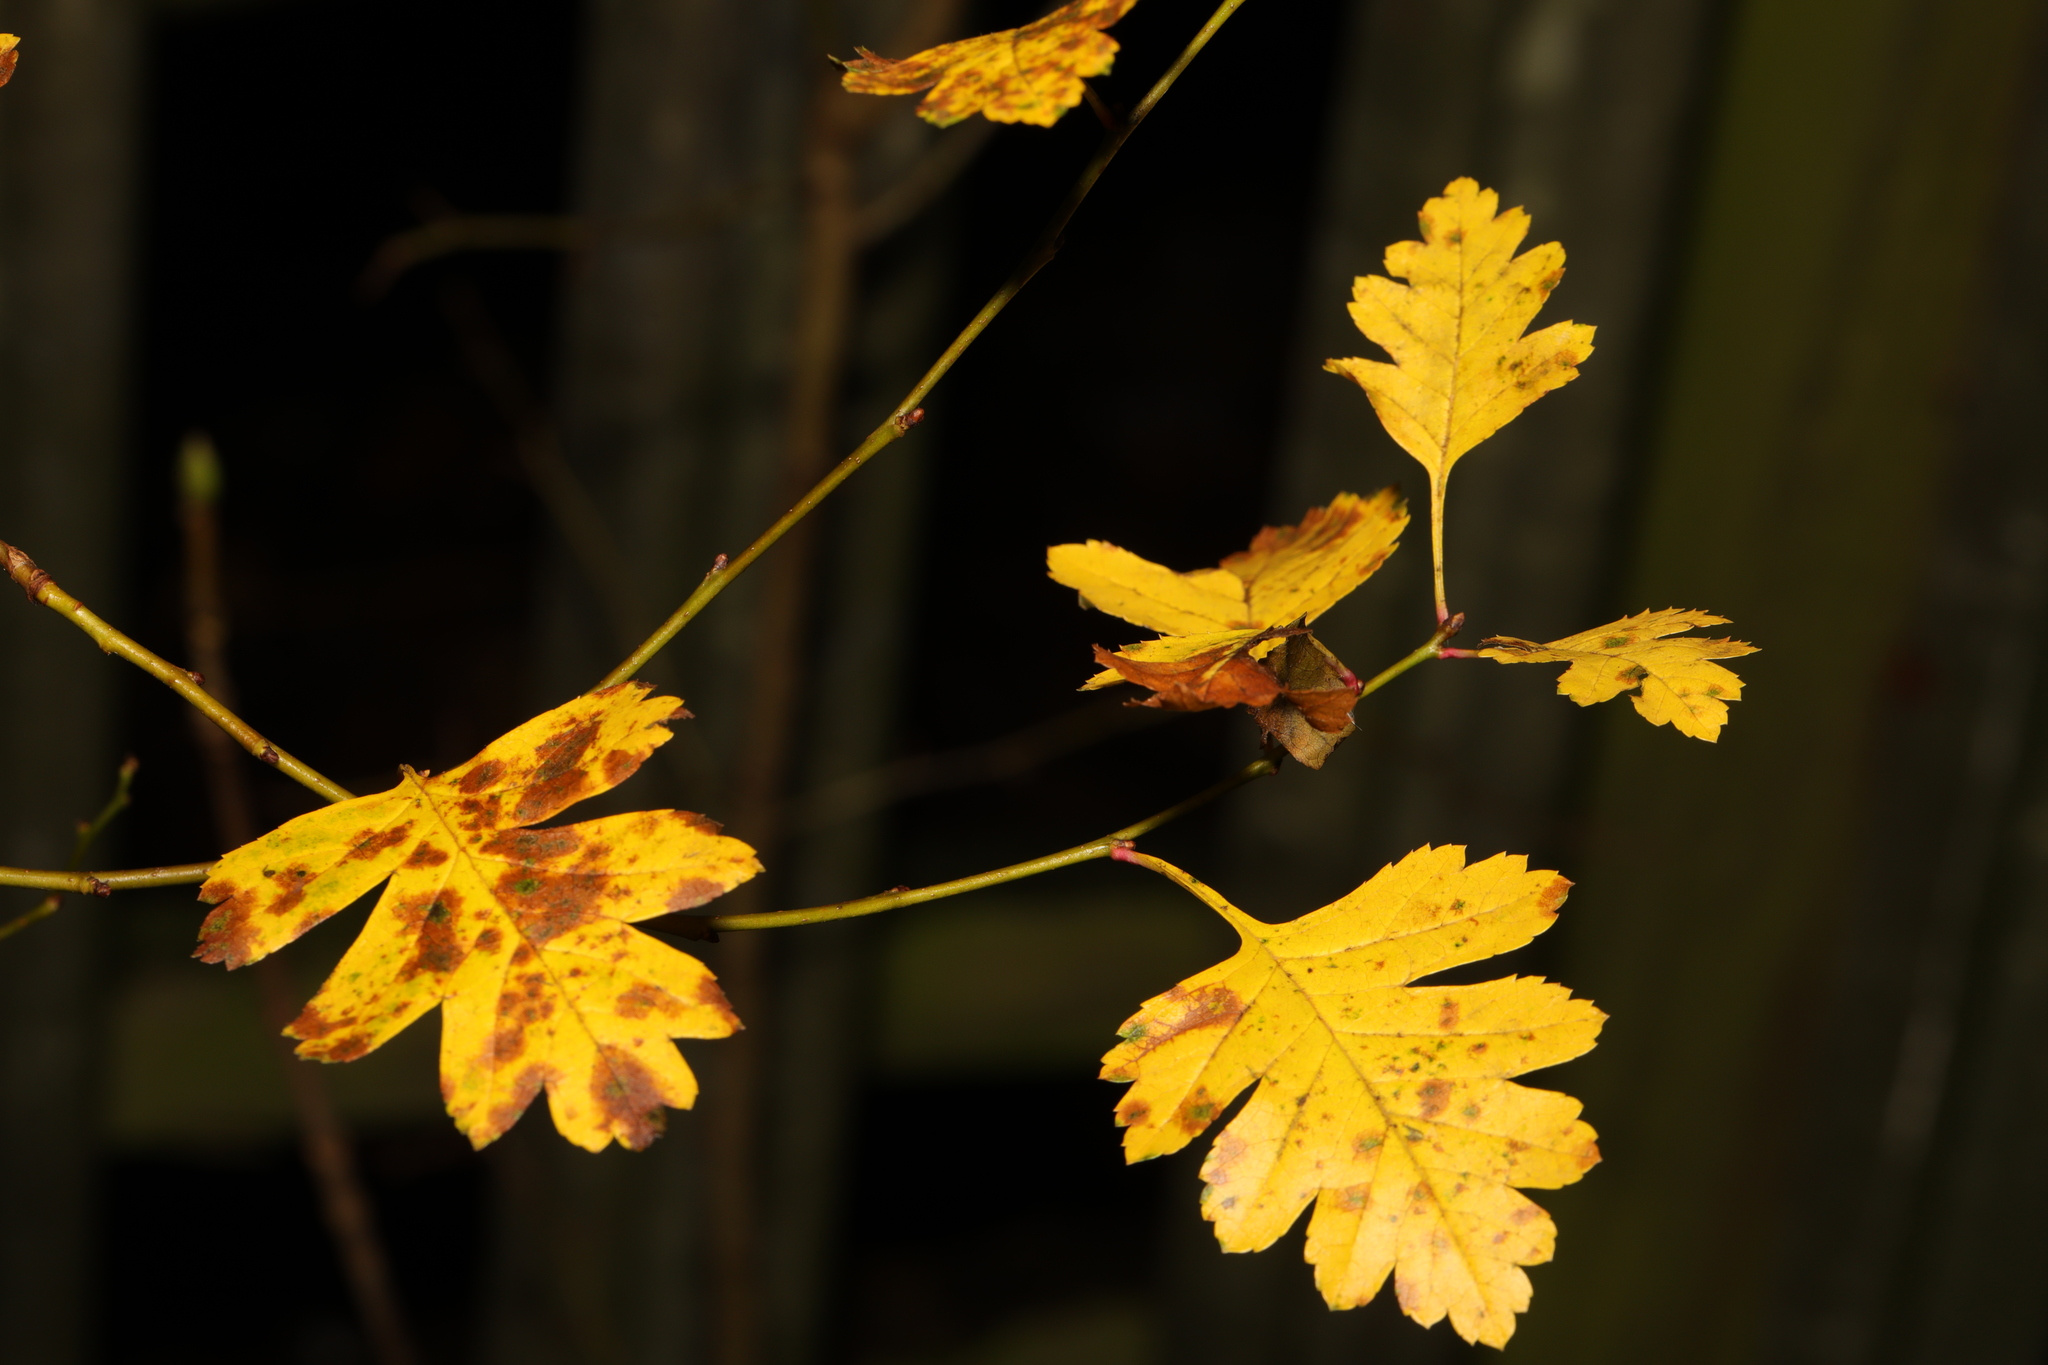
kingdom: Plantae
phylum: Tracheophyta
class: Magnoliopsida
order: Rosales
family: Rosaceae
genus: Crataegus
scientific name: Crataegus monogyna
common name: Hawthorn
